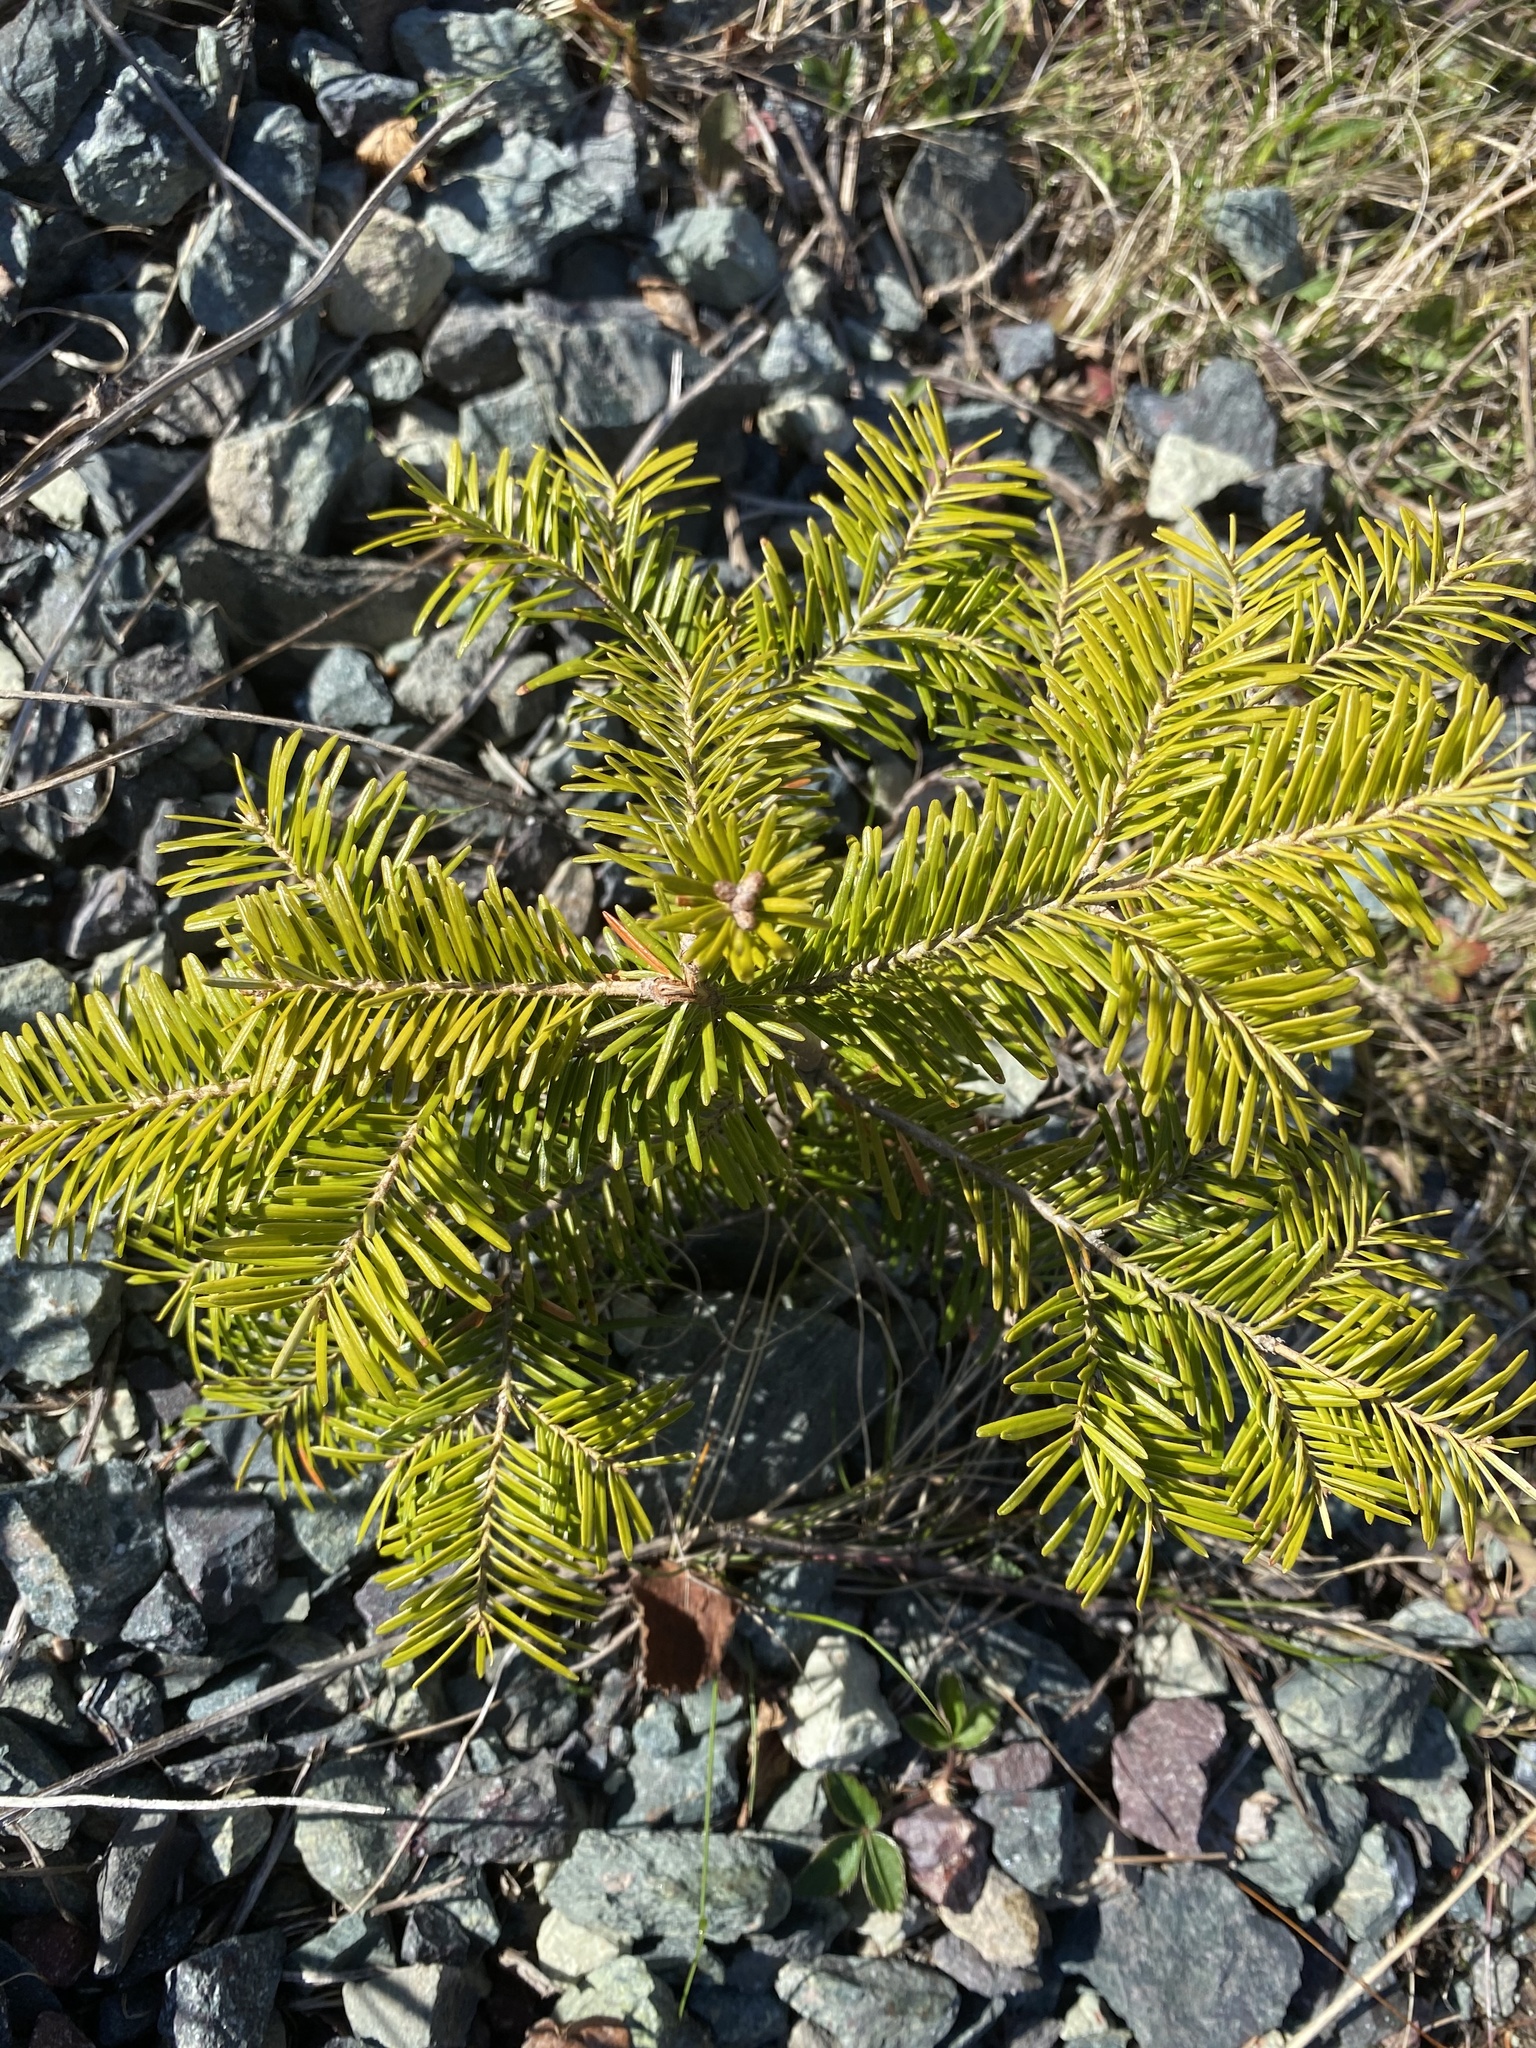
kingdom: Plantae
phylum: Tracheophyta
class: Pinopsida
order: Pinales
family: Pinaceae
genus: Abies
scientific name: Abies balsamea
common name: Balsam fir
